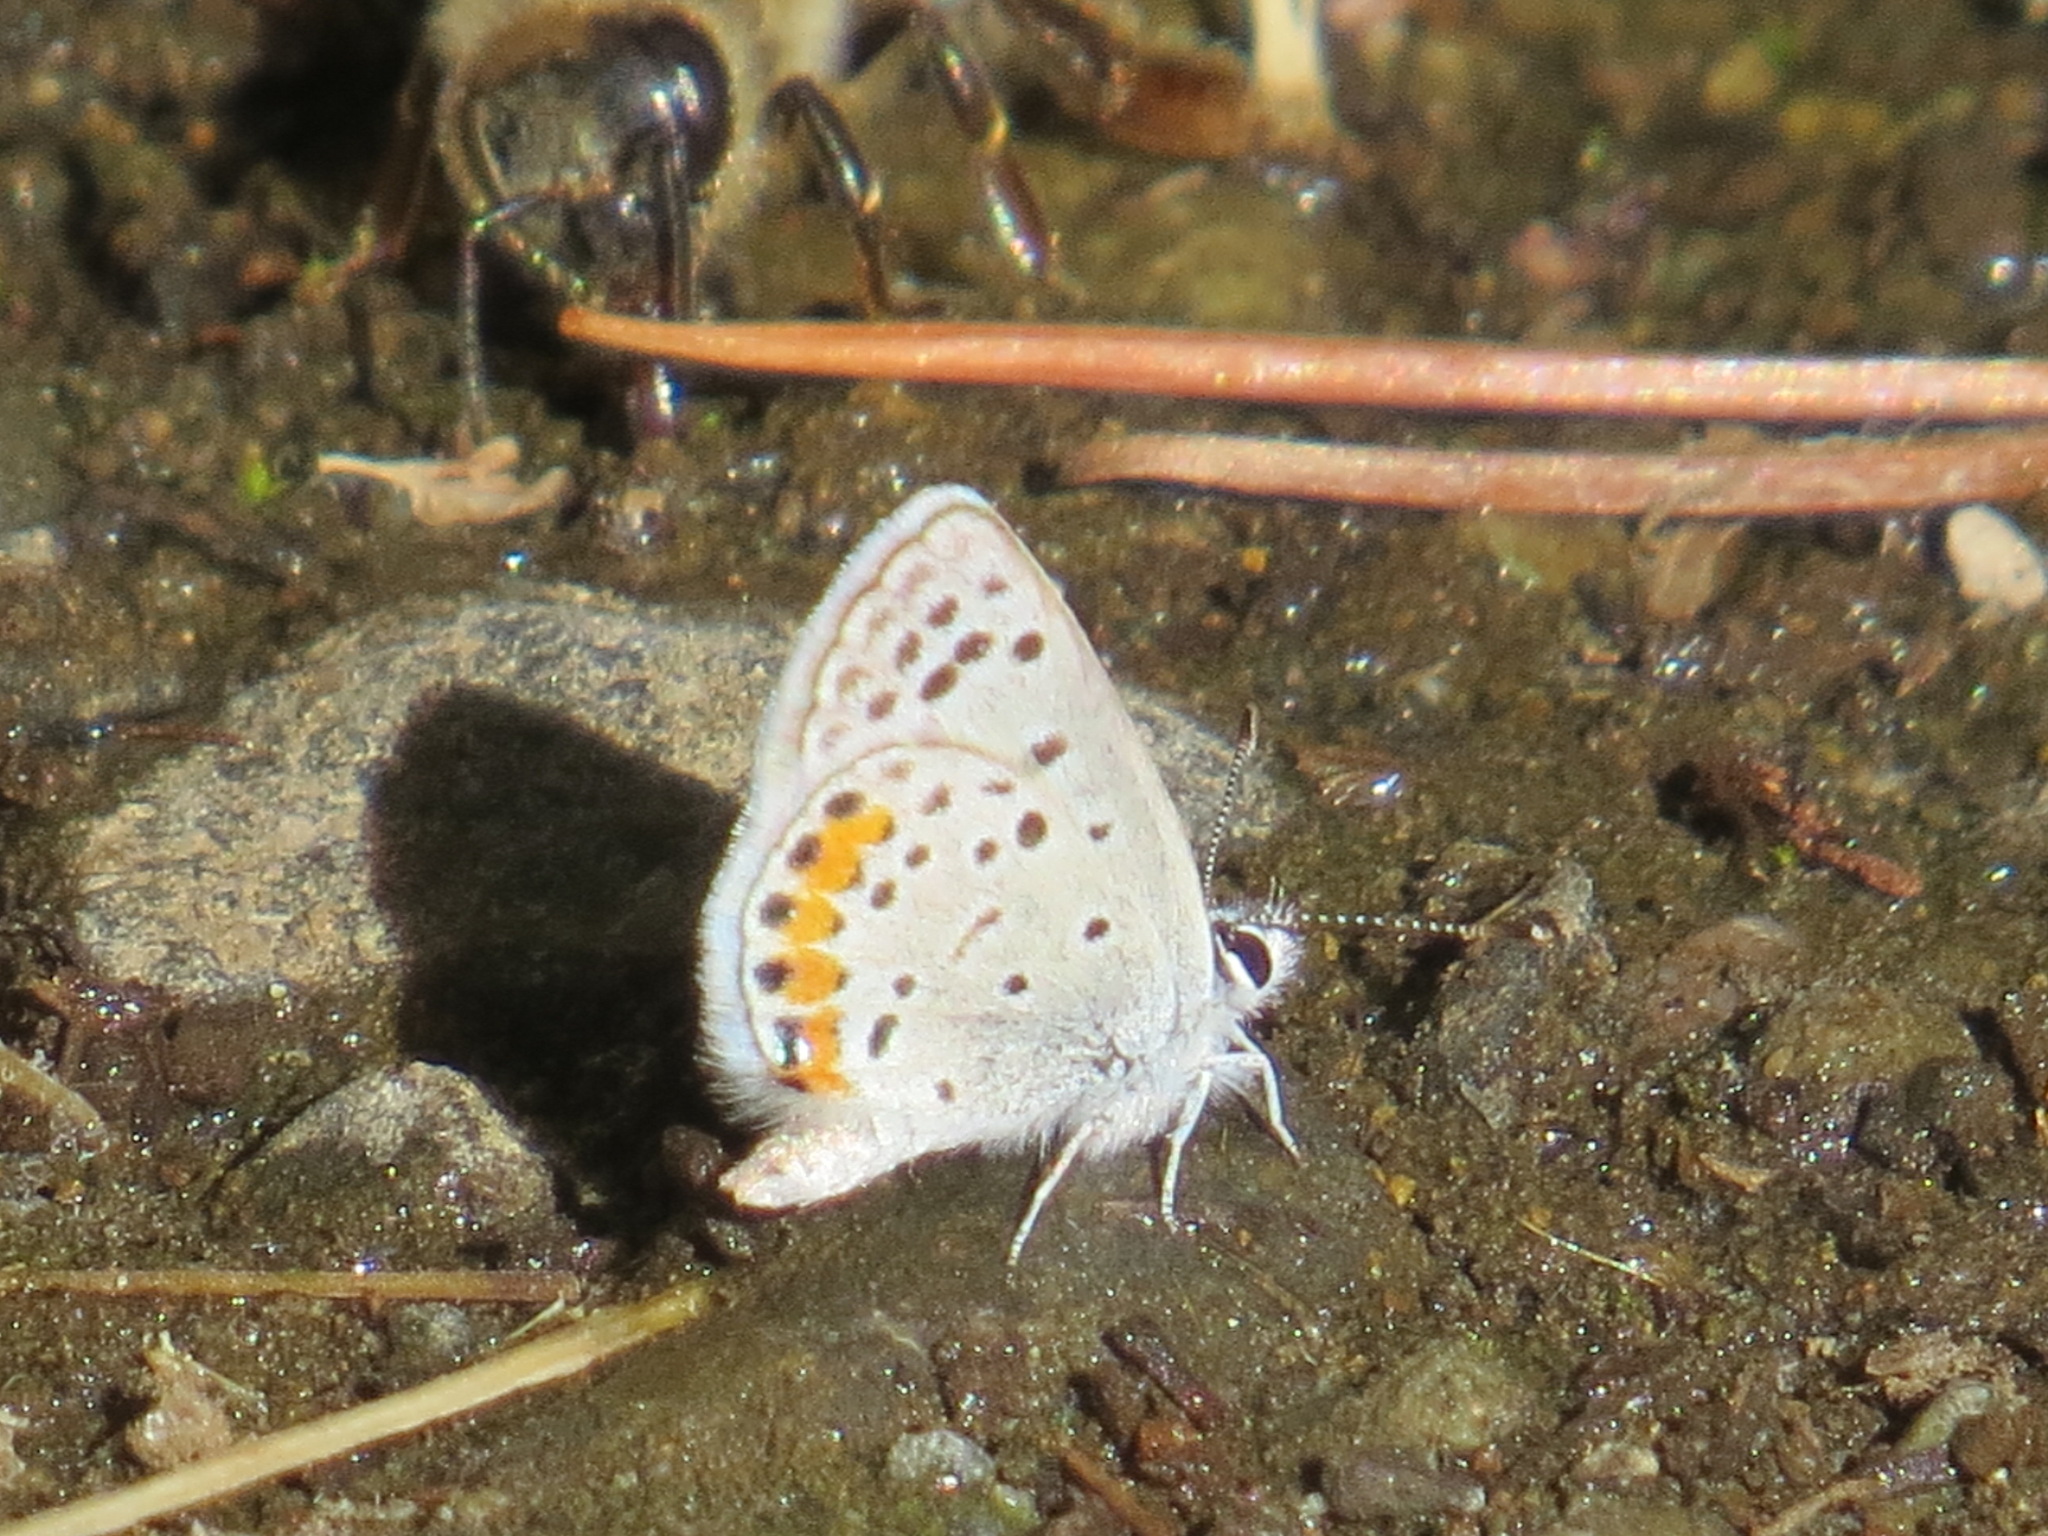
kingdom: Animalia
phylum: Arthropoda
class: Insecta
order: Lepidoptera
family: Lycaenidae
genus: Icaricia
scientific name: Icaricia acmon
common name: Acmon blue
